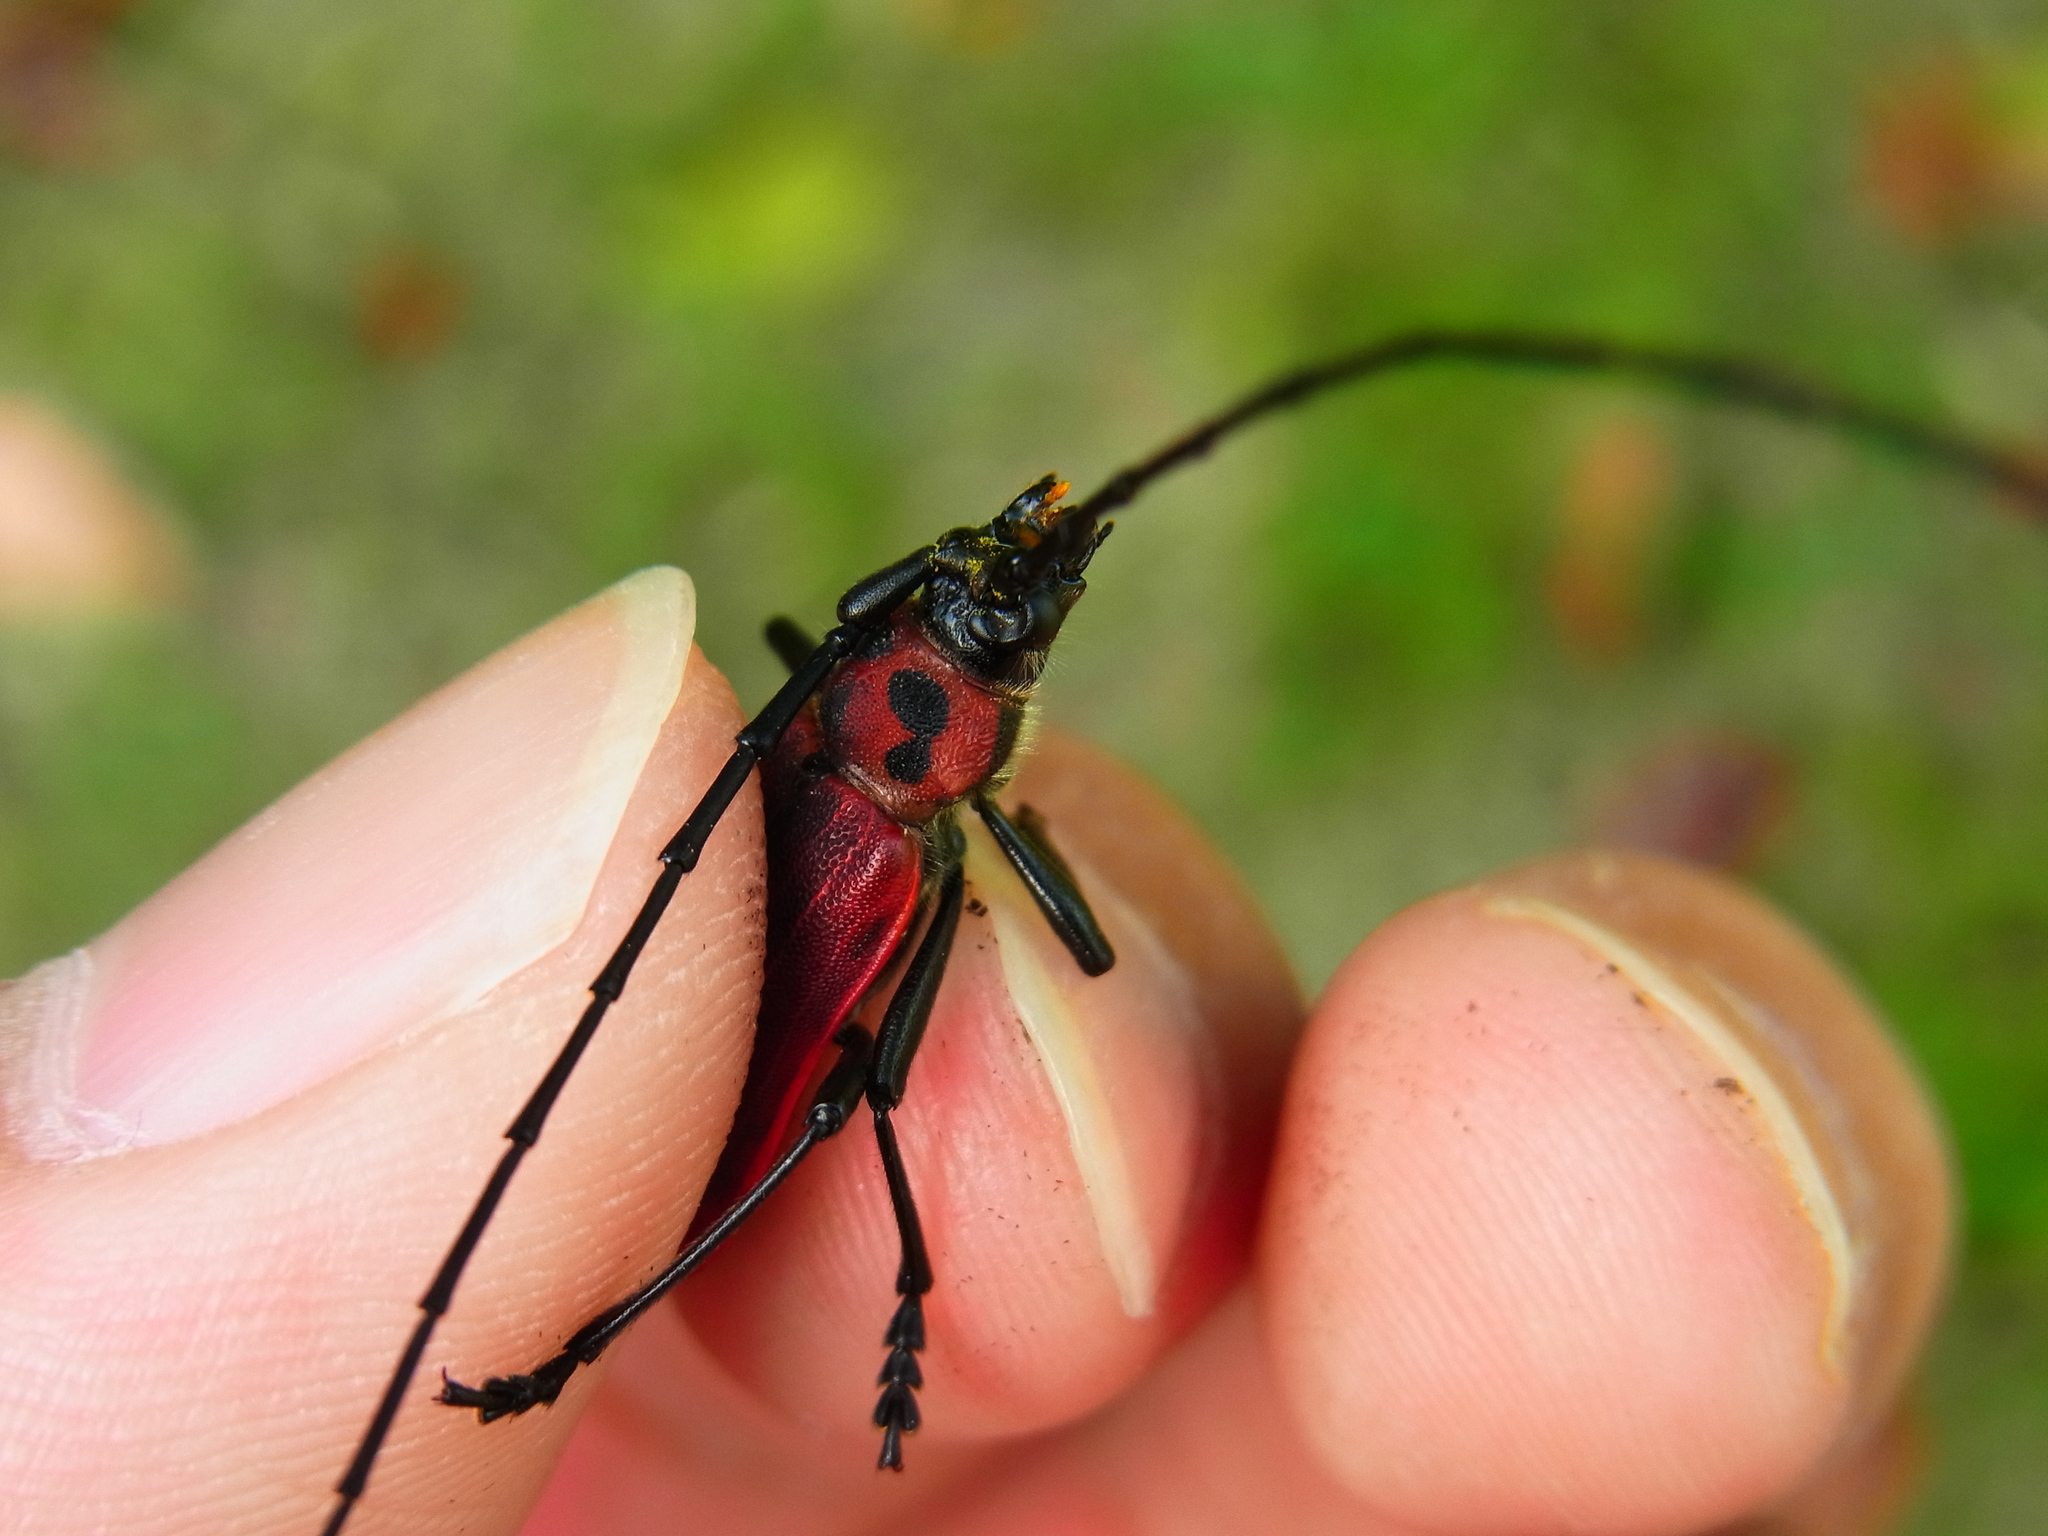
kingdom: Animalia
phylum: Arthropoda
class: Insecta
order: Coleoptera
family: Cerambycidae
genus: Purpuricenus
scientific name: Purpuricenus spectabilis
